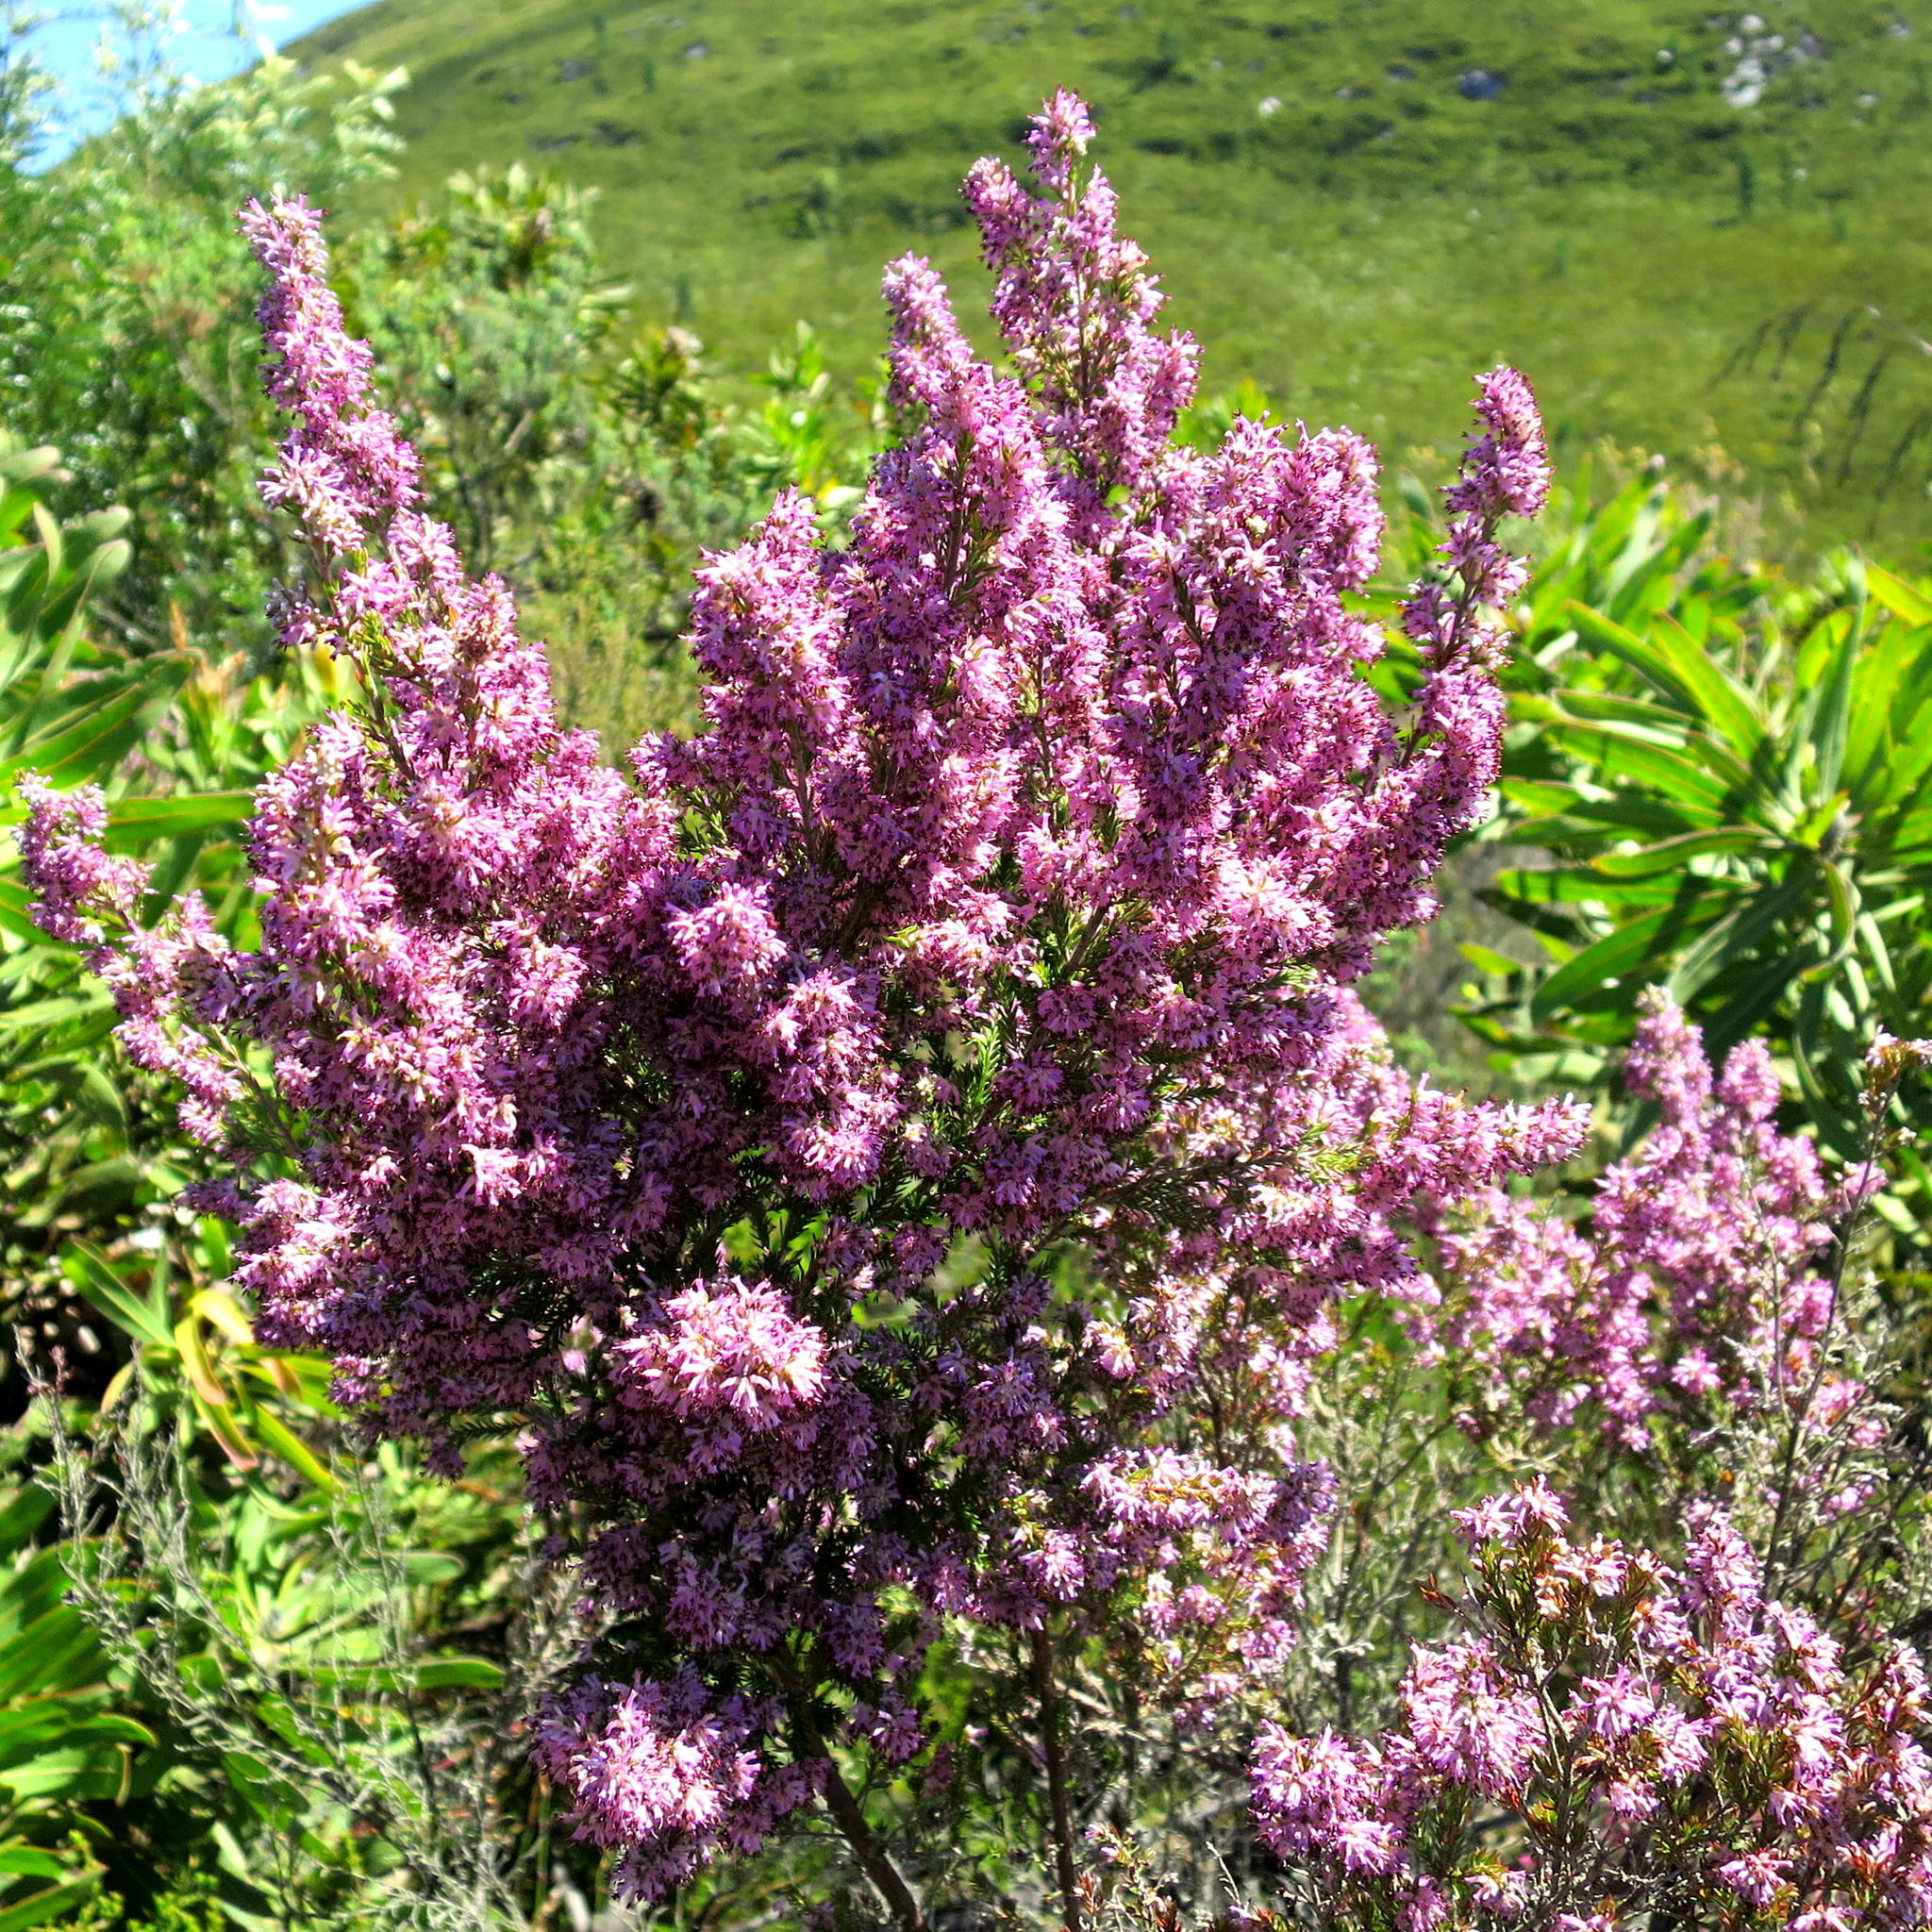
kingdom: Plantae
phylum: Tracheophyta
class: Magnoliopsida
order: Ericales
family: Ericaceae
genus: Erica
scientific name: Erica uberiflora
